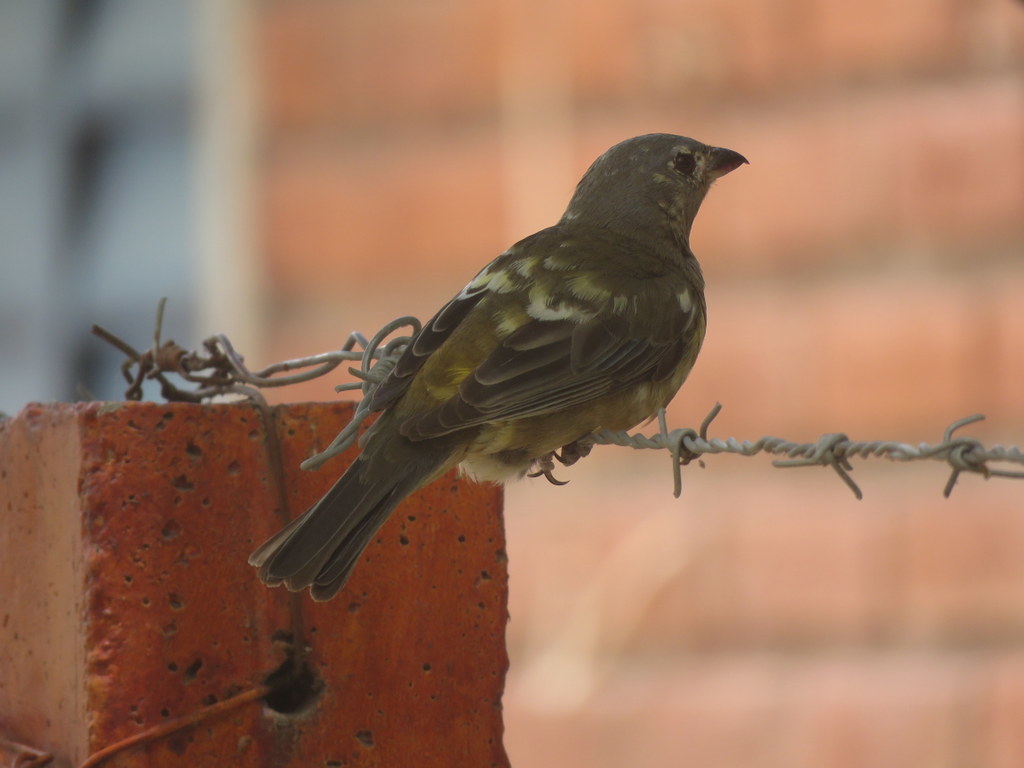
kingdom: Animalia
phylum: Chordata
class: Aves
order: Passeriformes
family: Thraupidae
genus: Rauenia
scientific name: Rauenia bonariensis
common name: Blue-and-yellow tanager
